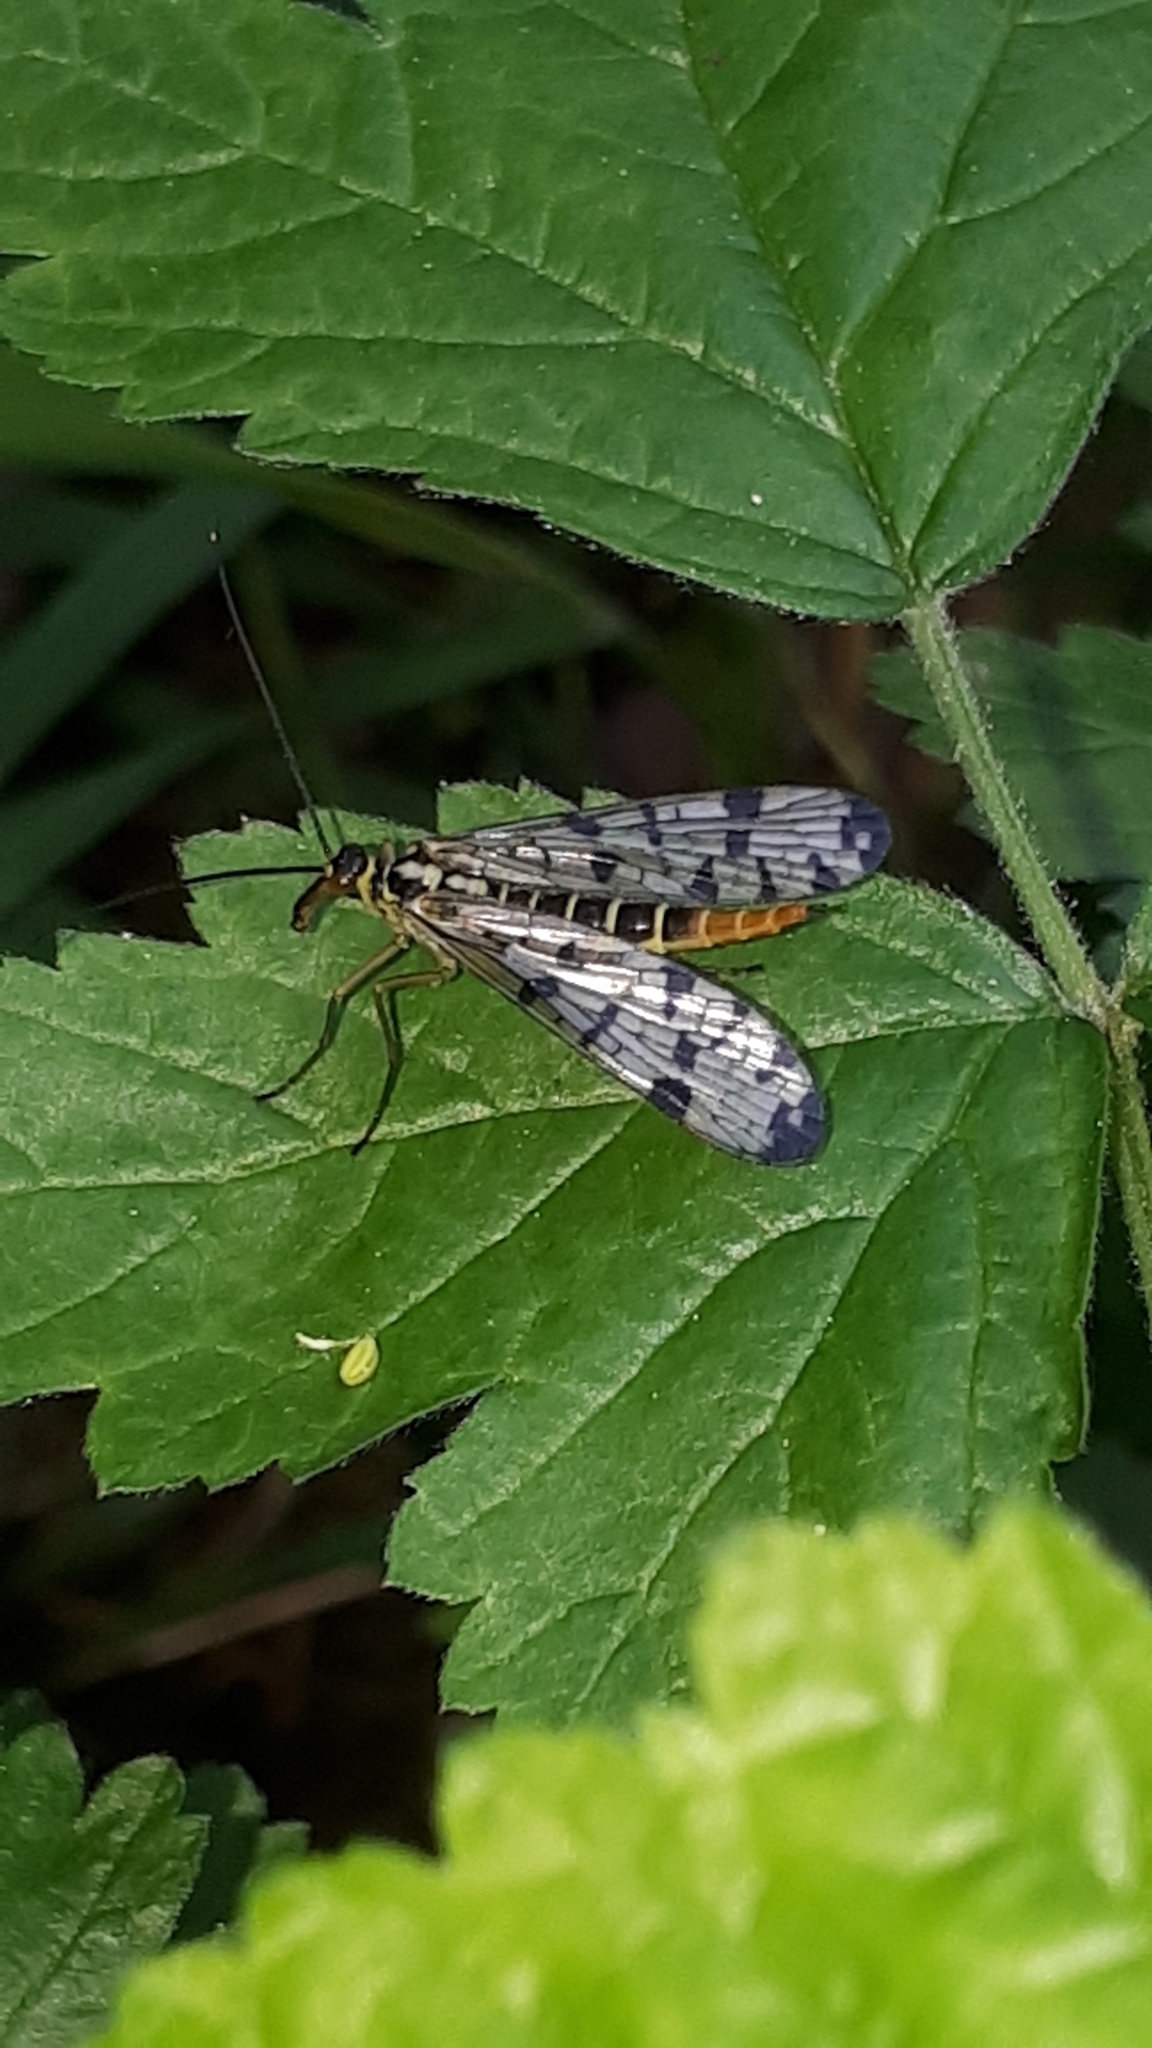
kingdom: Animalia
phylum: Arthropoda
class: Insecta
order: Mecoptera
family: Panorpidae
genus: Panorpa
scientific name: Panorpa germanica
